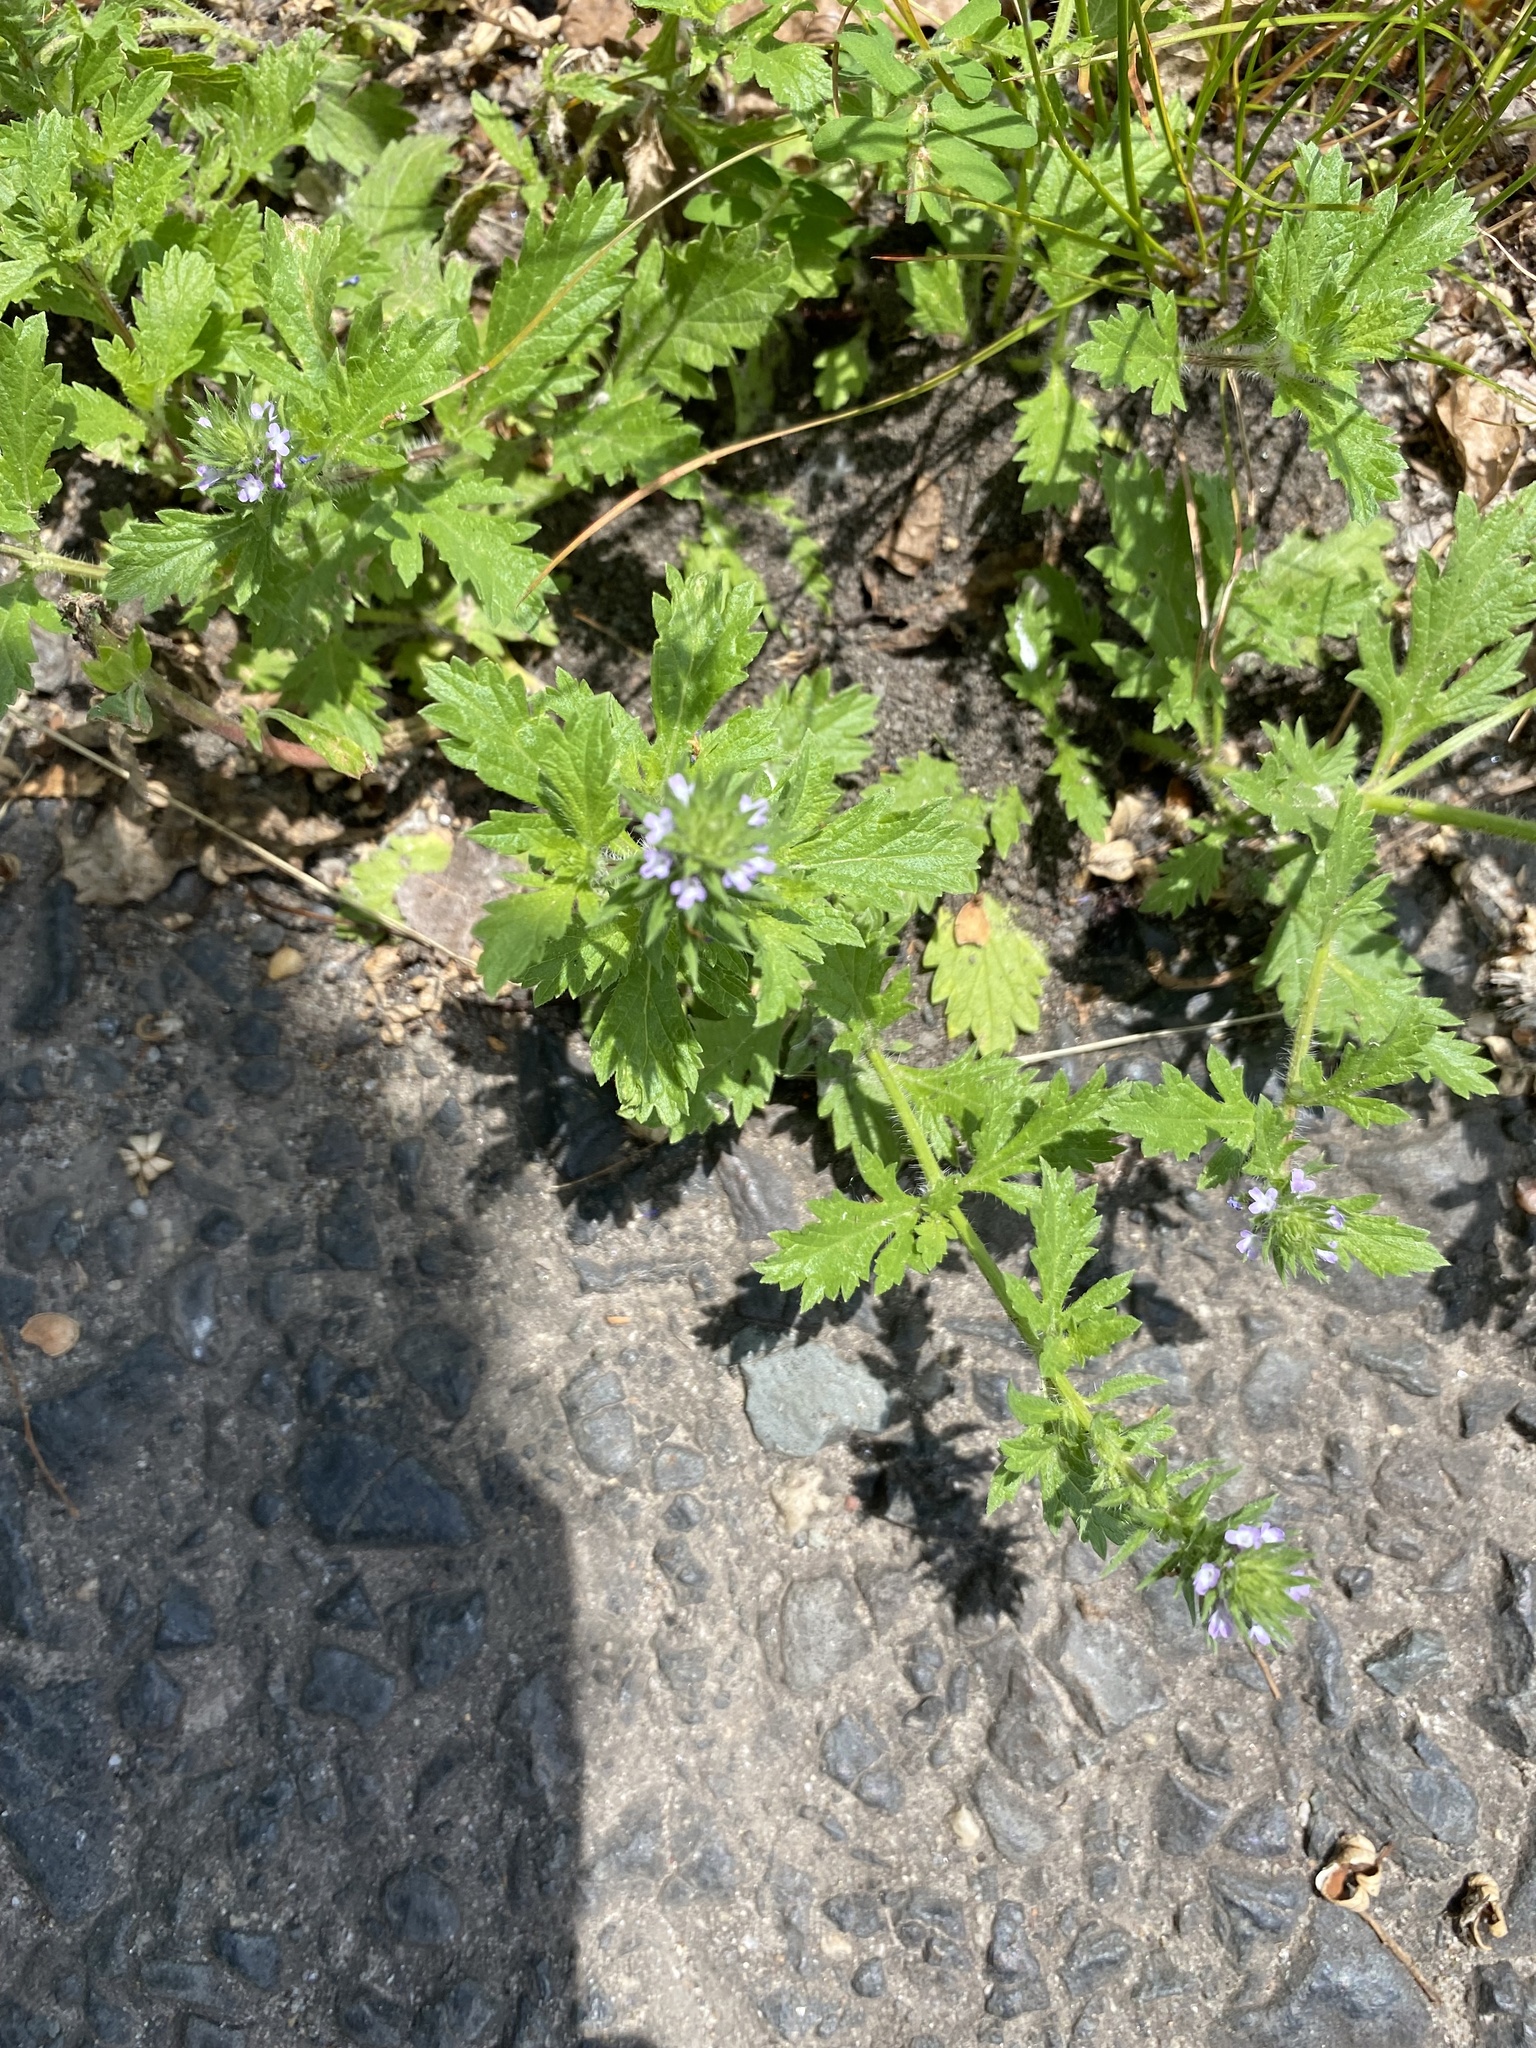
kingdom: Plantae
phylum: Tracheophyta
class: Magnoliopsida
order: Lamiales
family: Verbenaceae
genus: Verbena
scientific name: Verbena bracteata
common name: Bracted vervain
